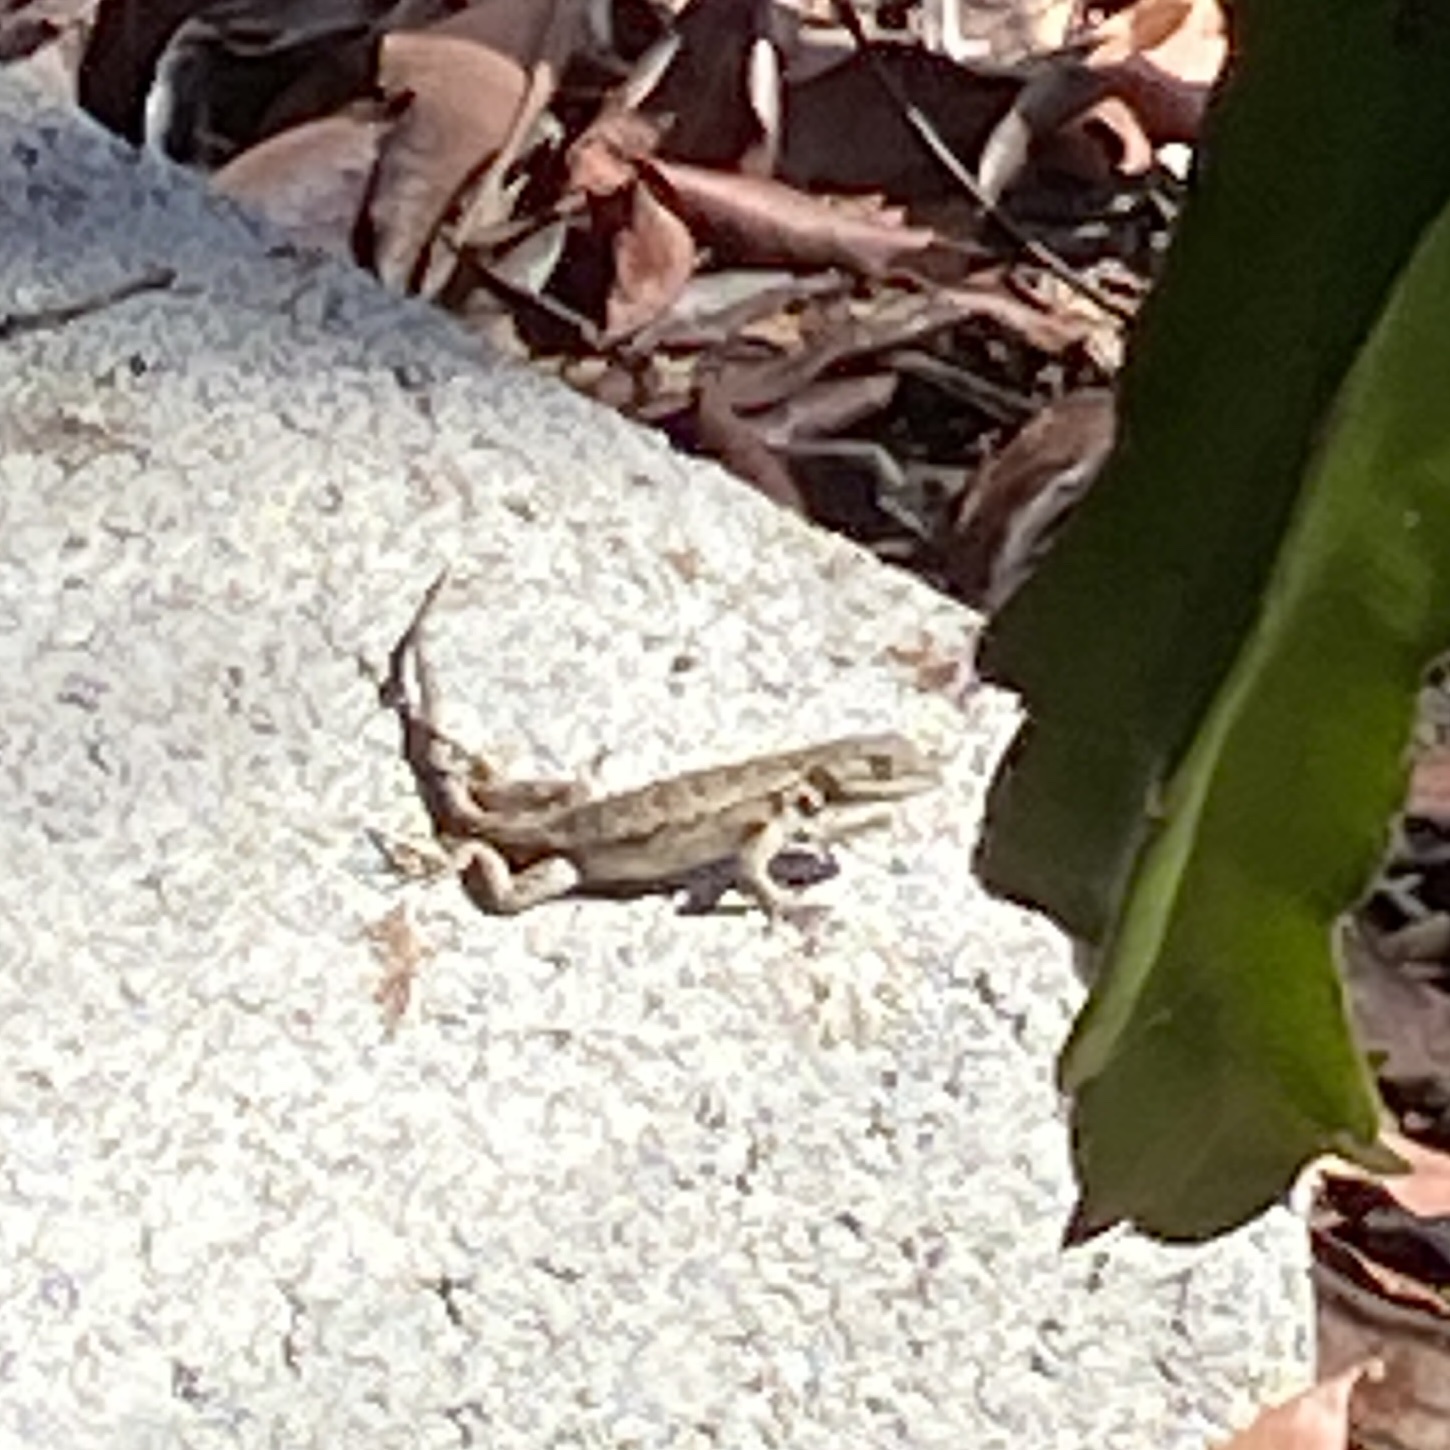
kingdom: Animalia
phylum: Chordata
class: Squamata
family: Phrynosomatidae
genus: Sceloporus
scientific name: Sceloporus occidentalis
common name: Western fence lizard
